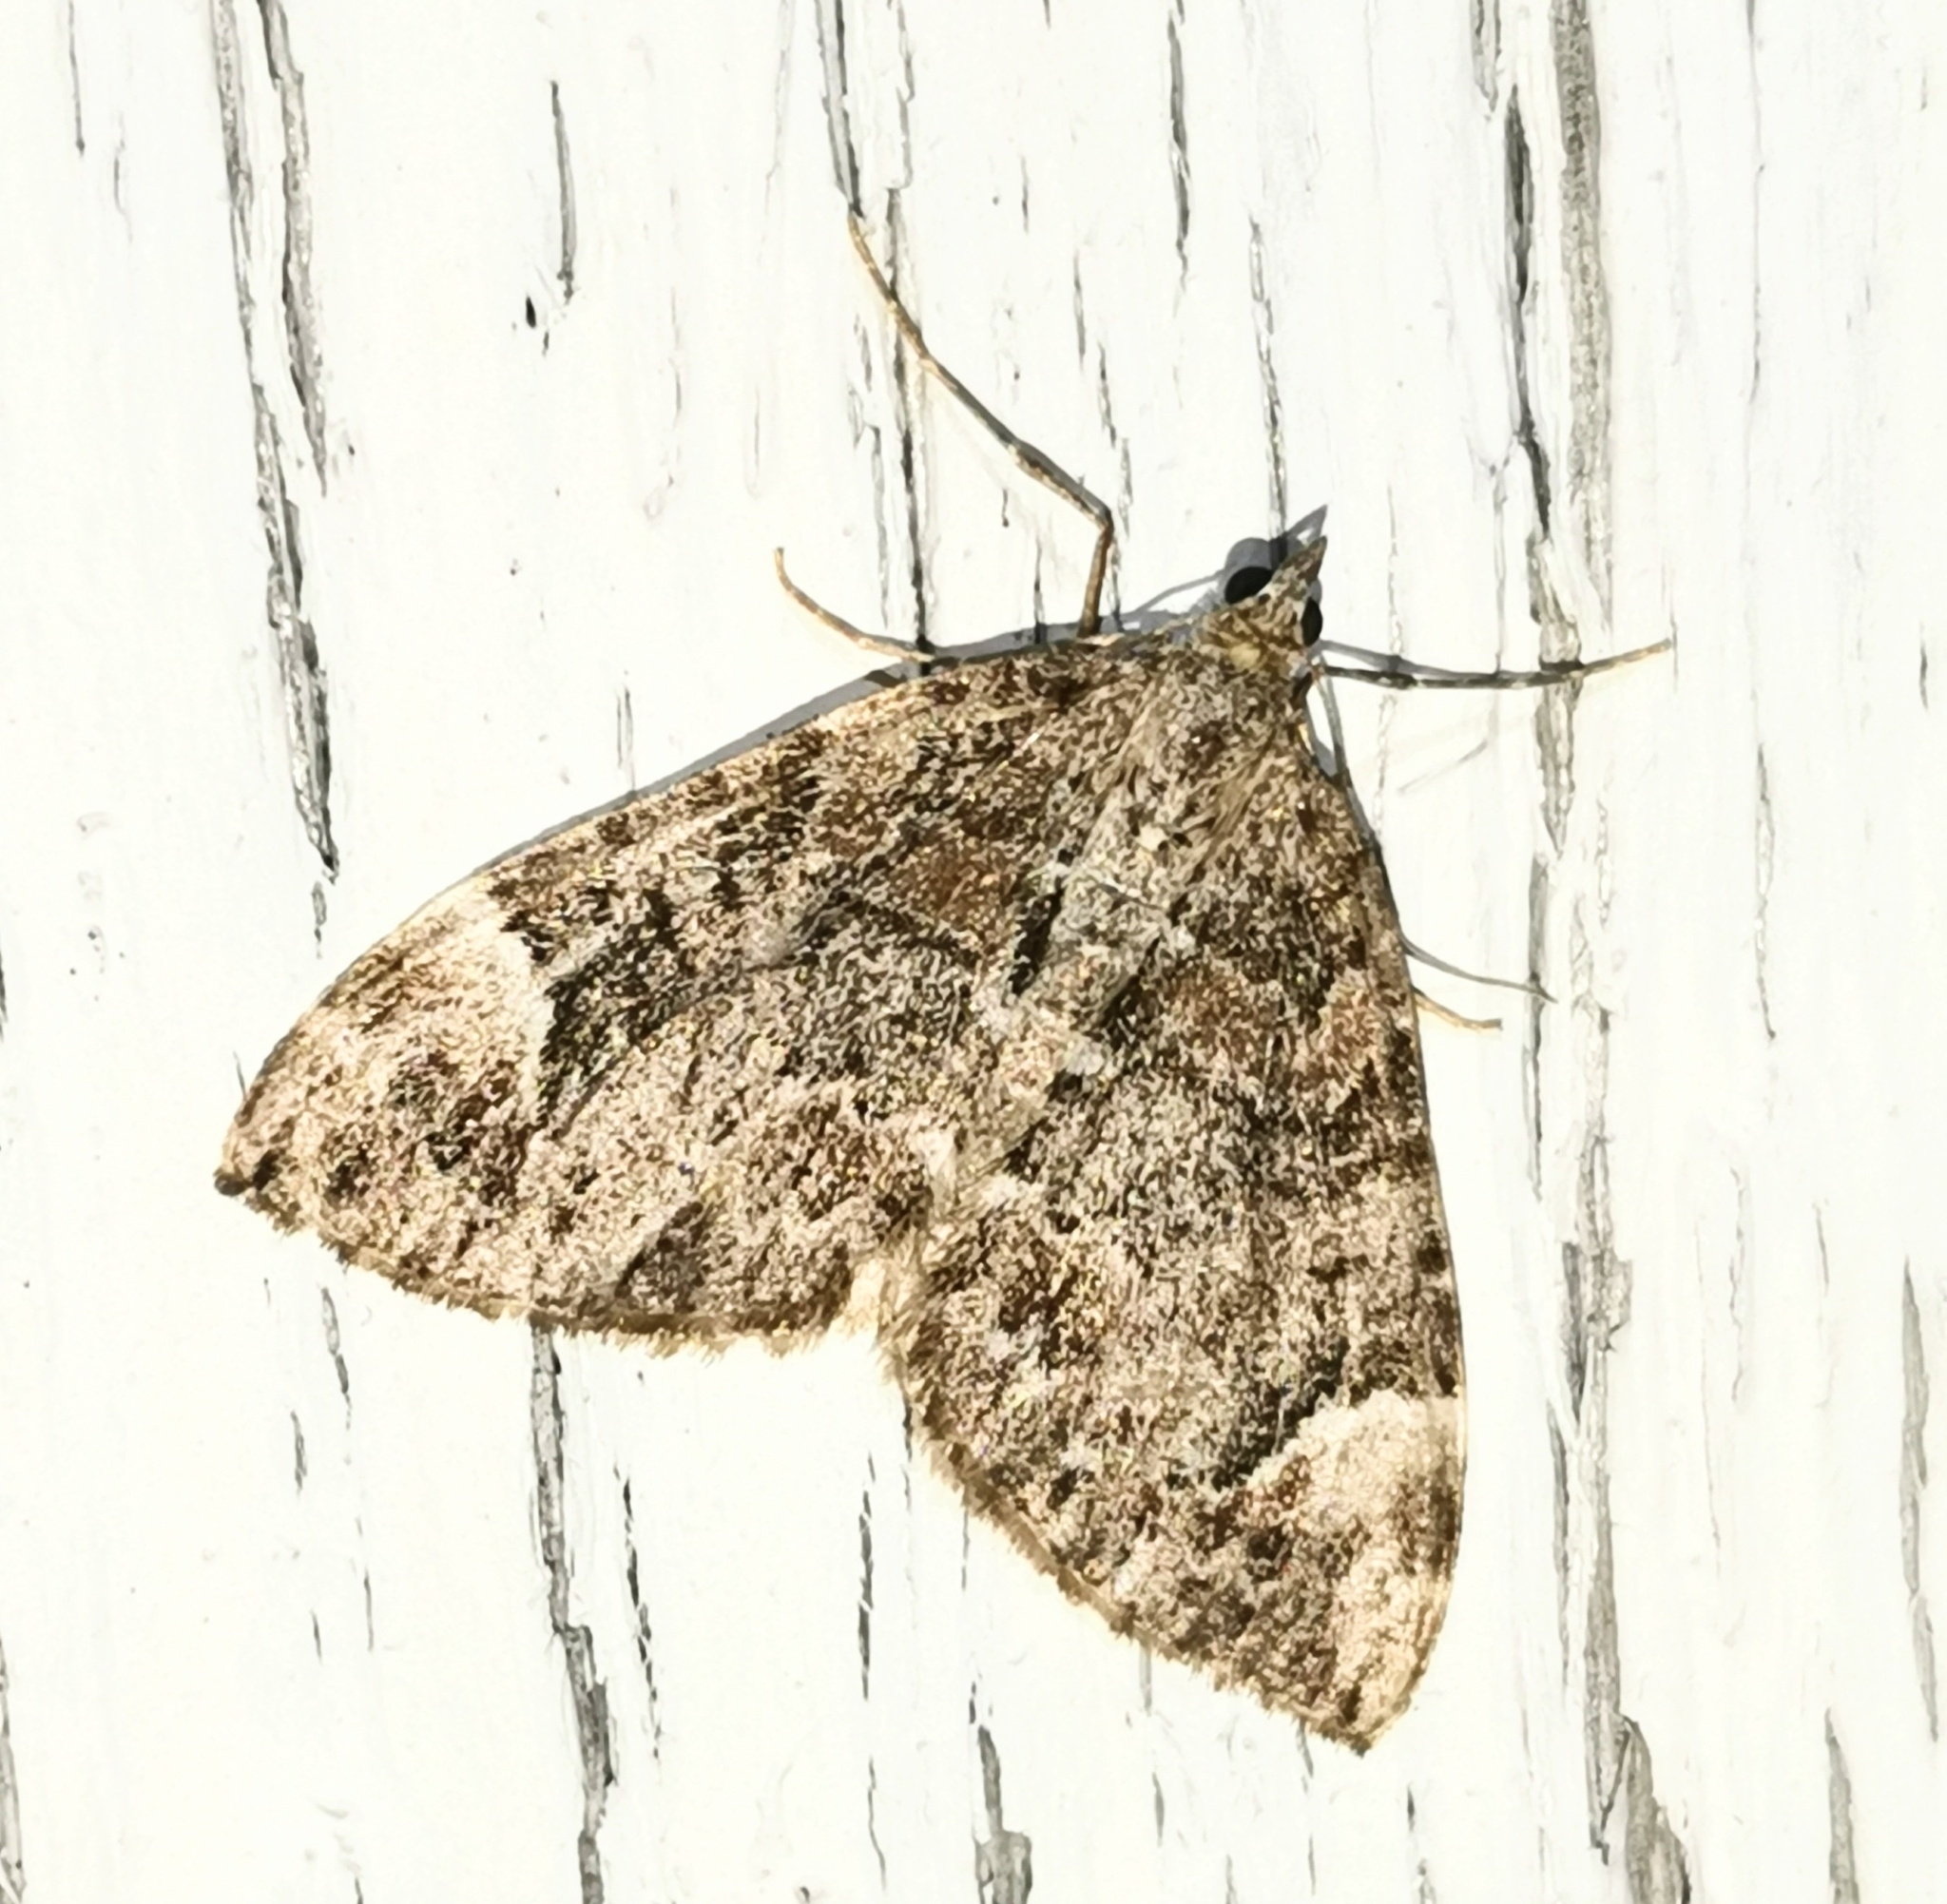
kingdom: Animalia
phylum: Arthropoda
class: Insecta
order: Lepidoptera
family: Geometridae
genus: Dysstroma
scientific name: Dysstroma citrata
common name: Dark marbled carpet
